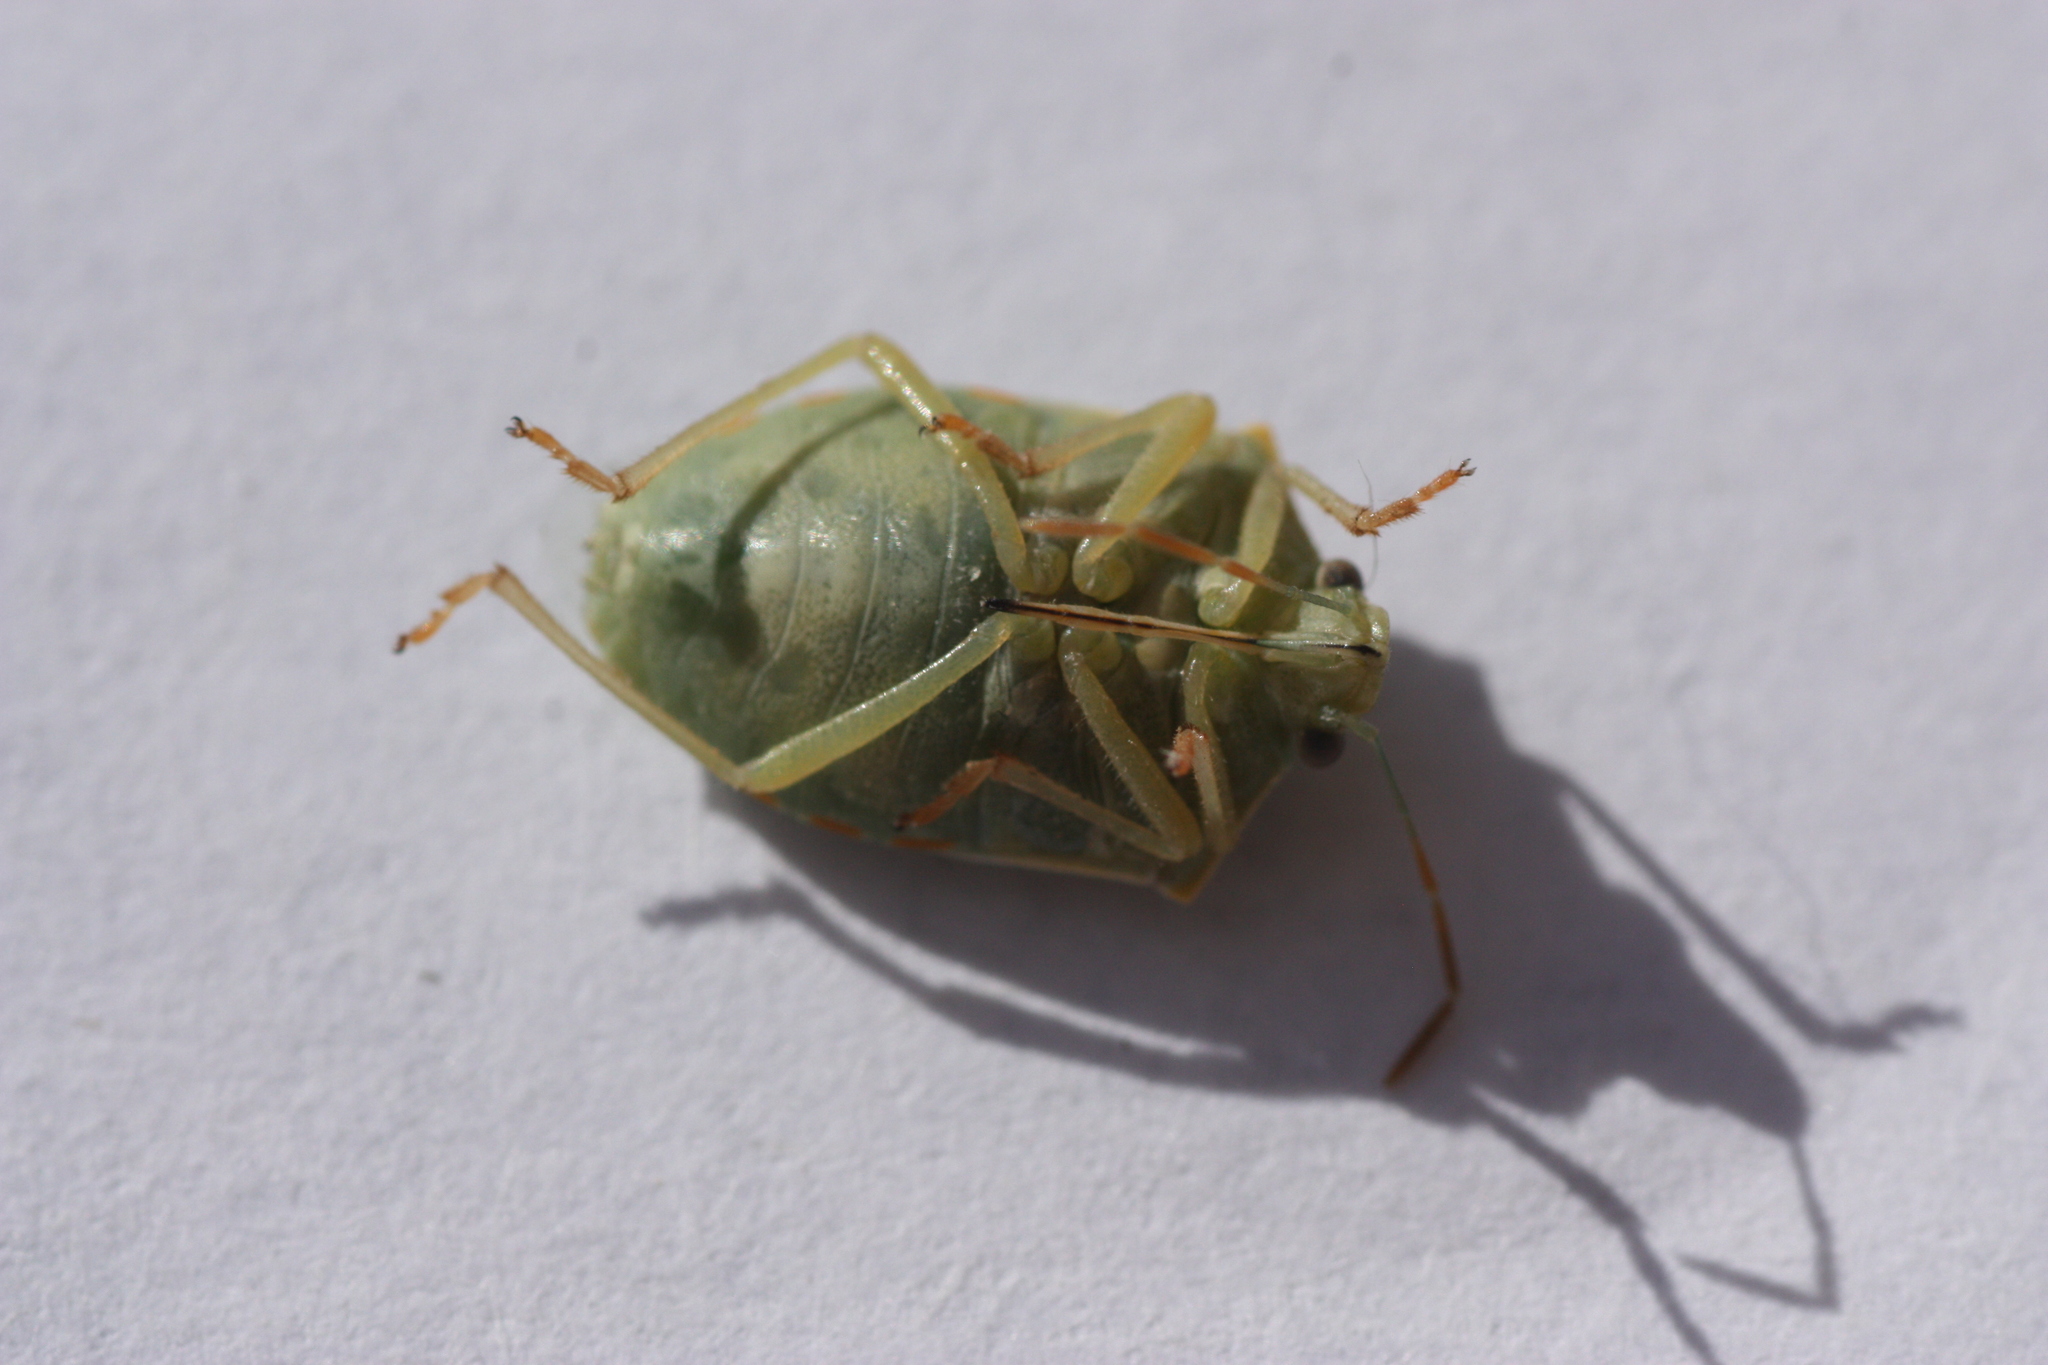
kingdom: Animalia
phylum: Arthropoda
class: Insecta
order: Hemiptera
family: Pentatomidae
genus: Thyanta
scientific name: Thyanta accerra
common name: Stink bug
